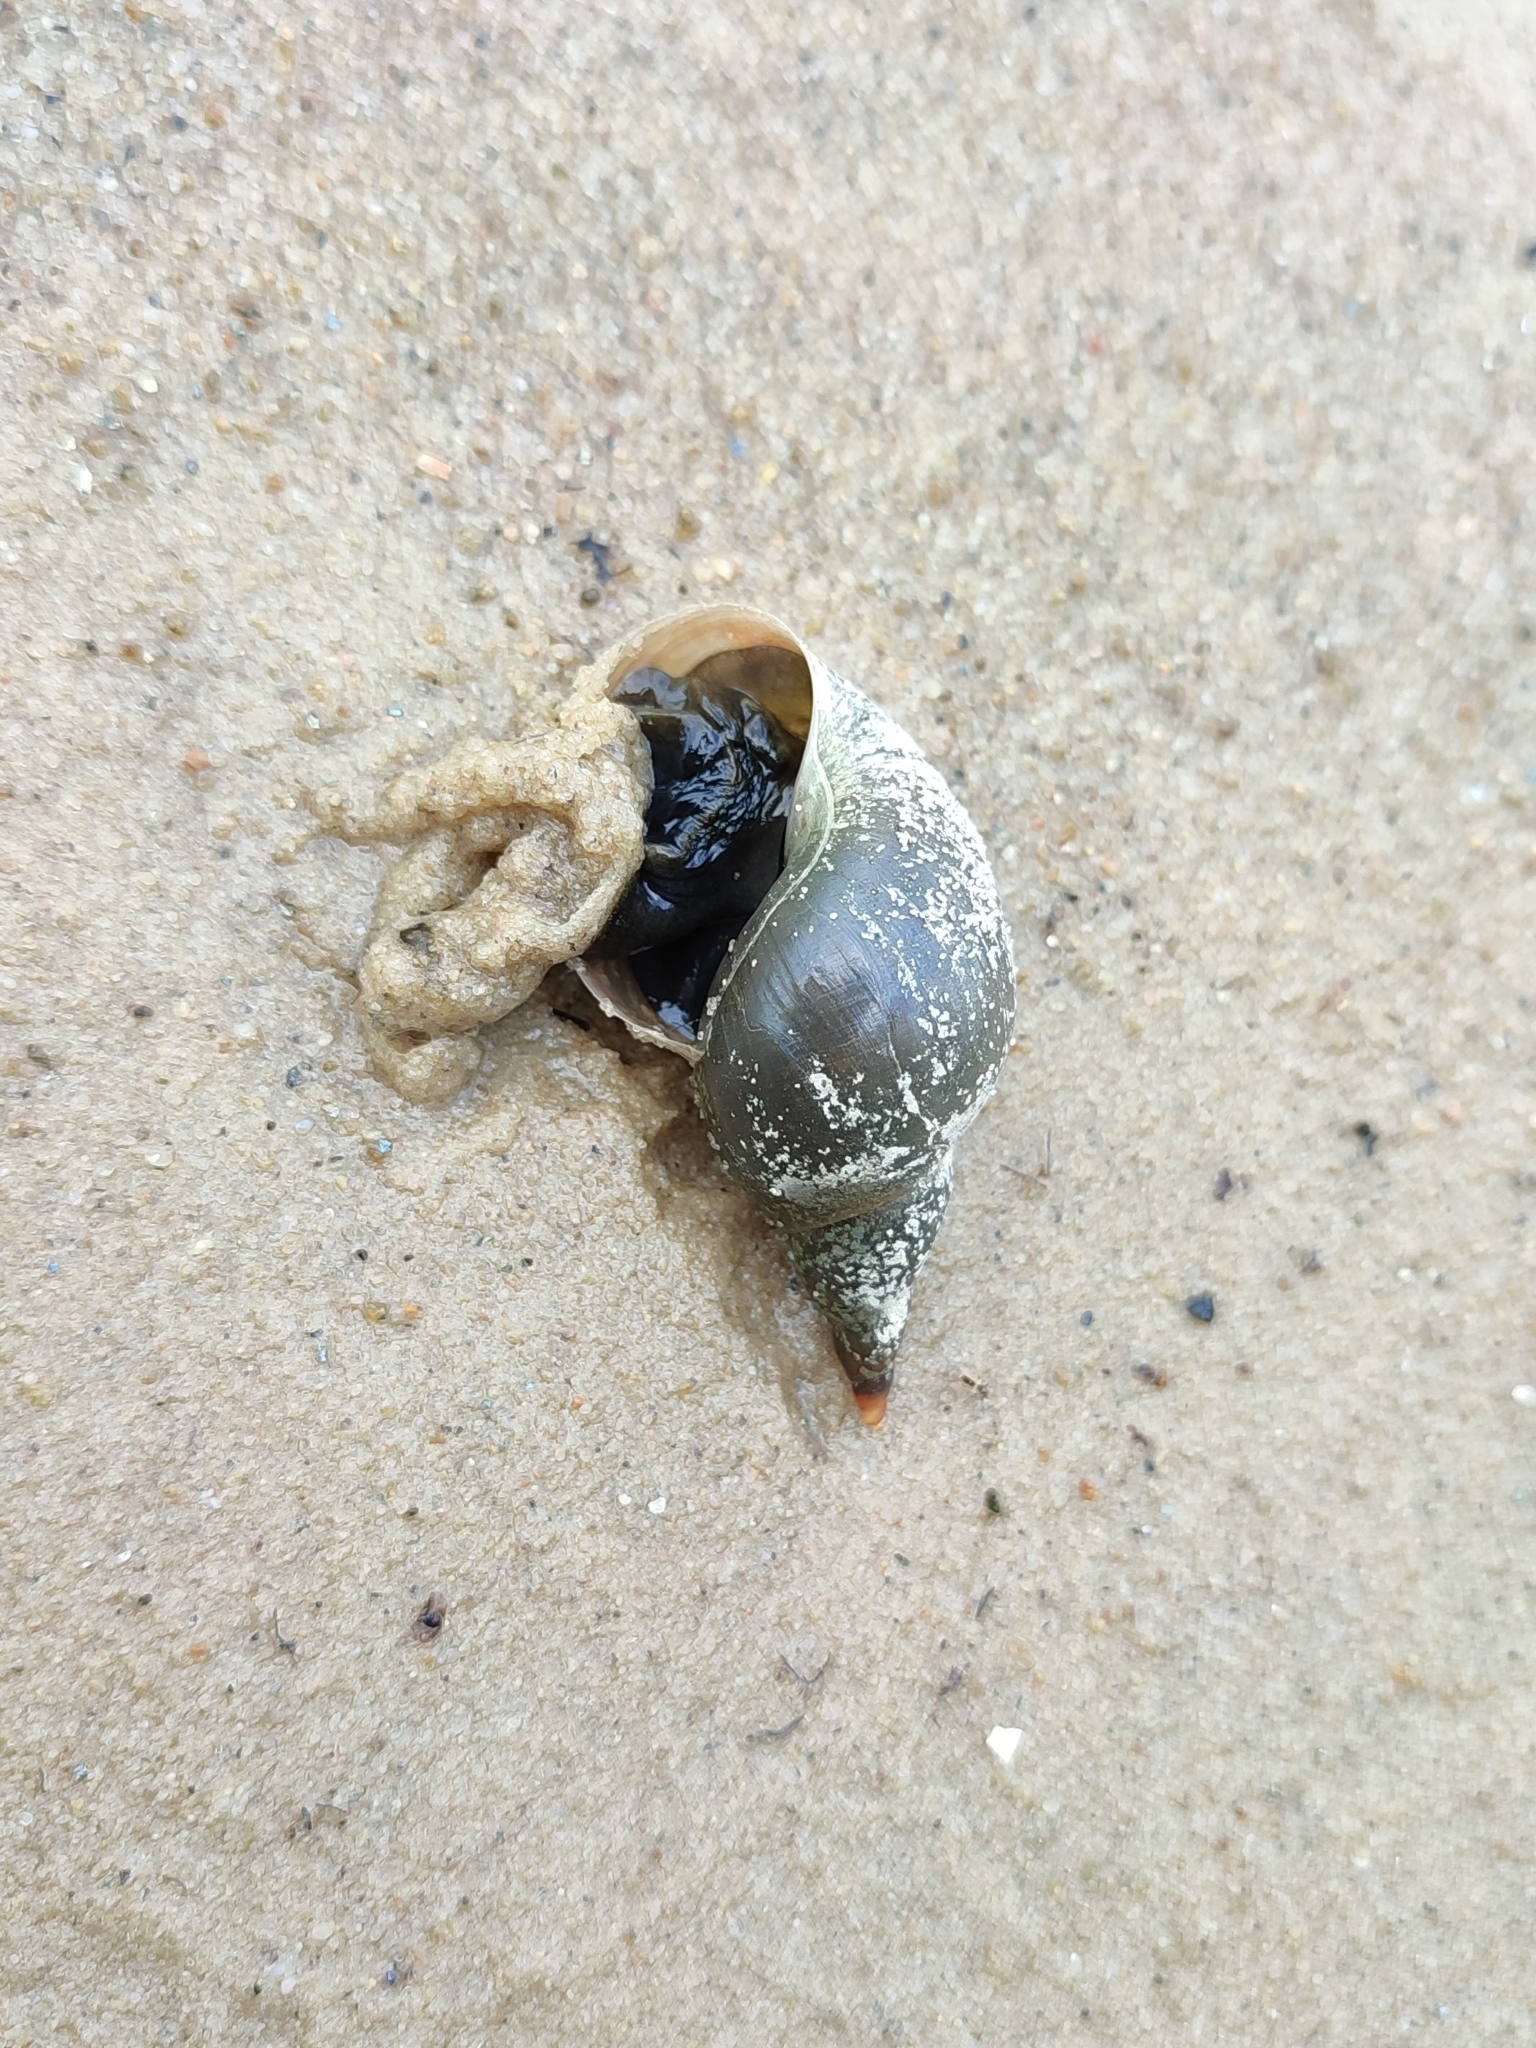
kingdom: Animalia
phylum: Mollusca
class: Gastropoda
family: Lymnaeidae
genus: Lymnaea
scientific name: Lymnaea stagnalis
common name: Great pond snail
